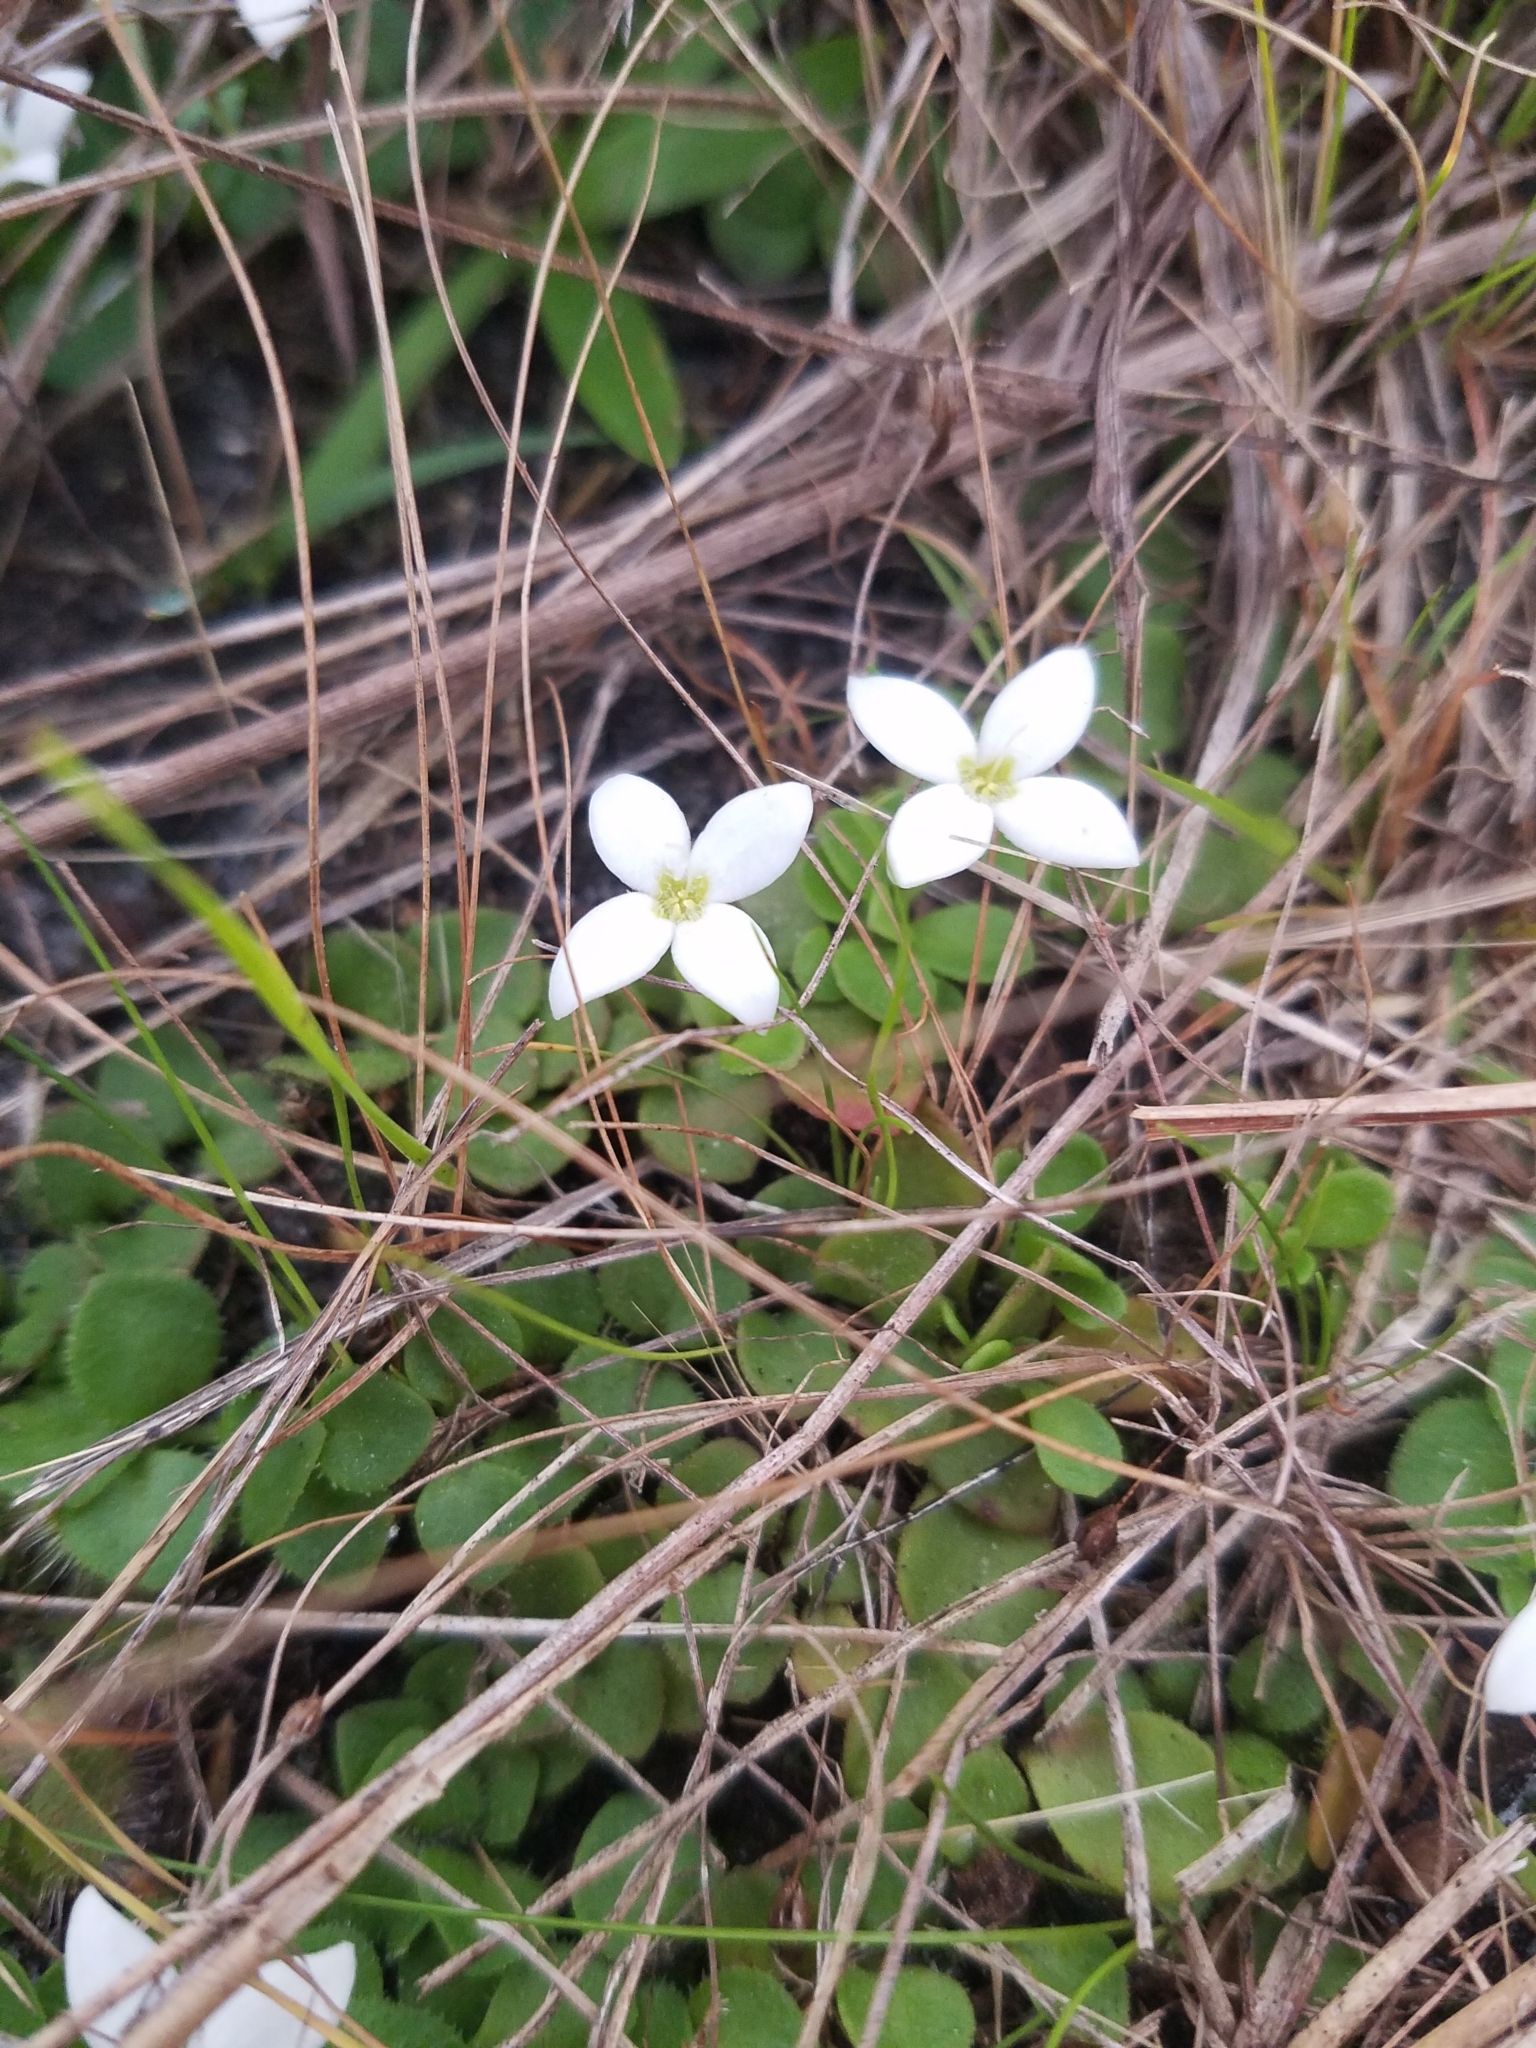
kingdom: Plantae
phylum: Tracheophyta
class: Magnoliopsida
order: Gentianales
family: Rubiaceae
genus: Houstonia
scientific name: Houstonia procumbens
